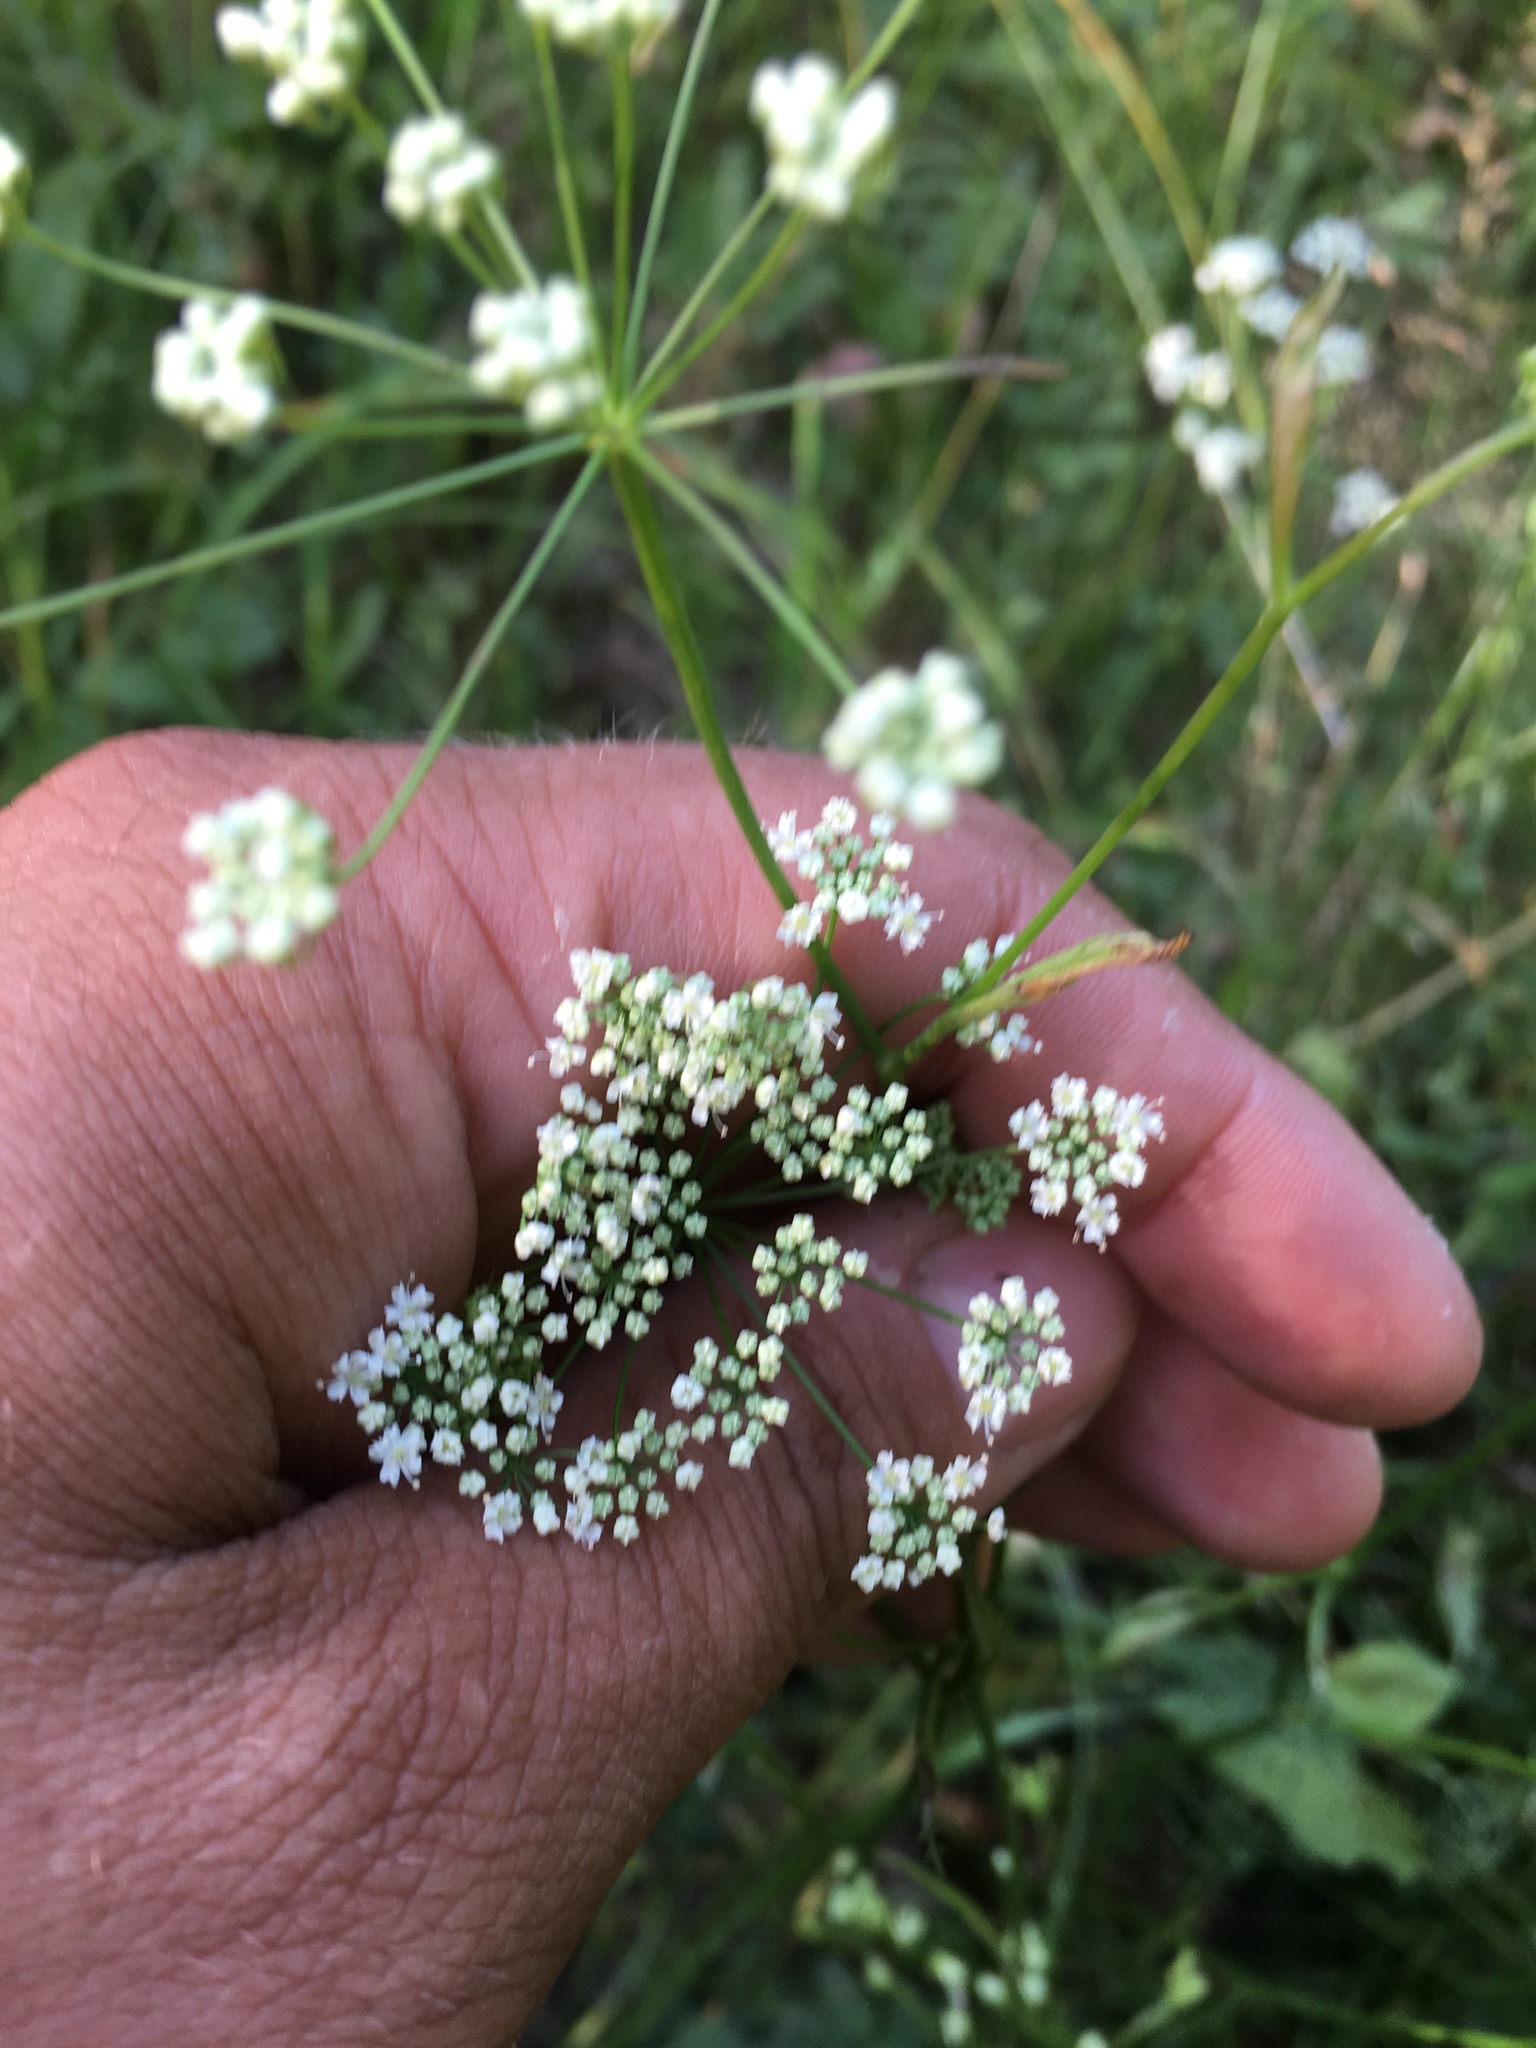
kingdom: Plantae
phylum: Tracheophyta
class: Magnoliopsida
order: Apiales
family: Apiaceae
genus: Pimpinella
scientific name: Pimpinella saxifraga
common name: Burnet-saxifrage
